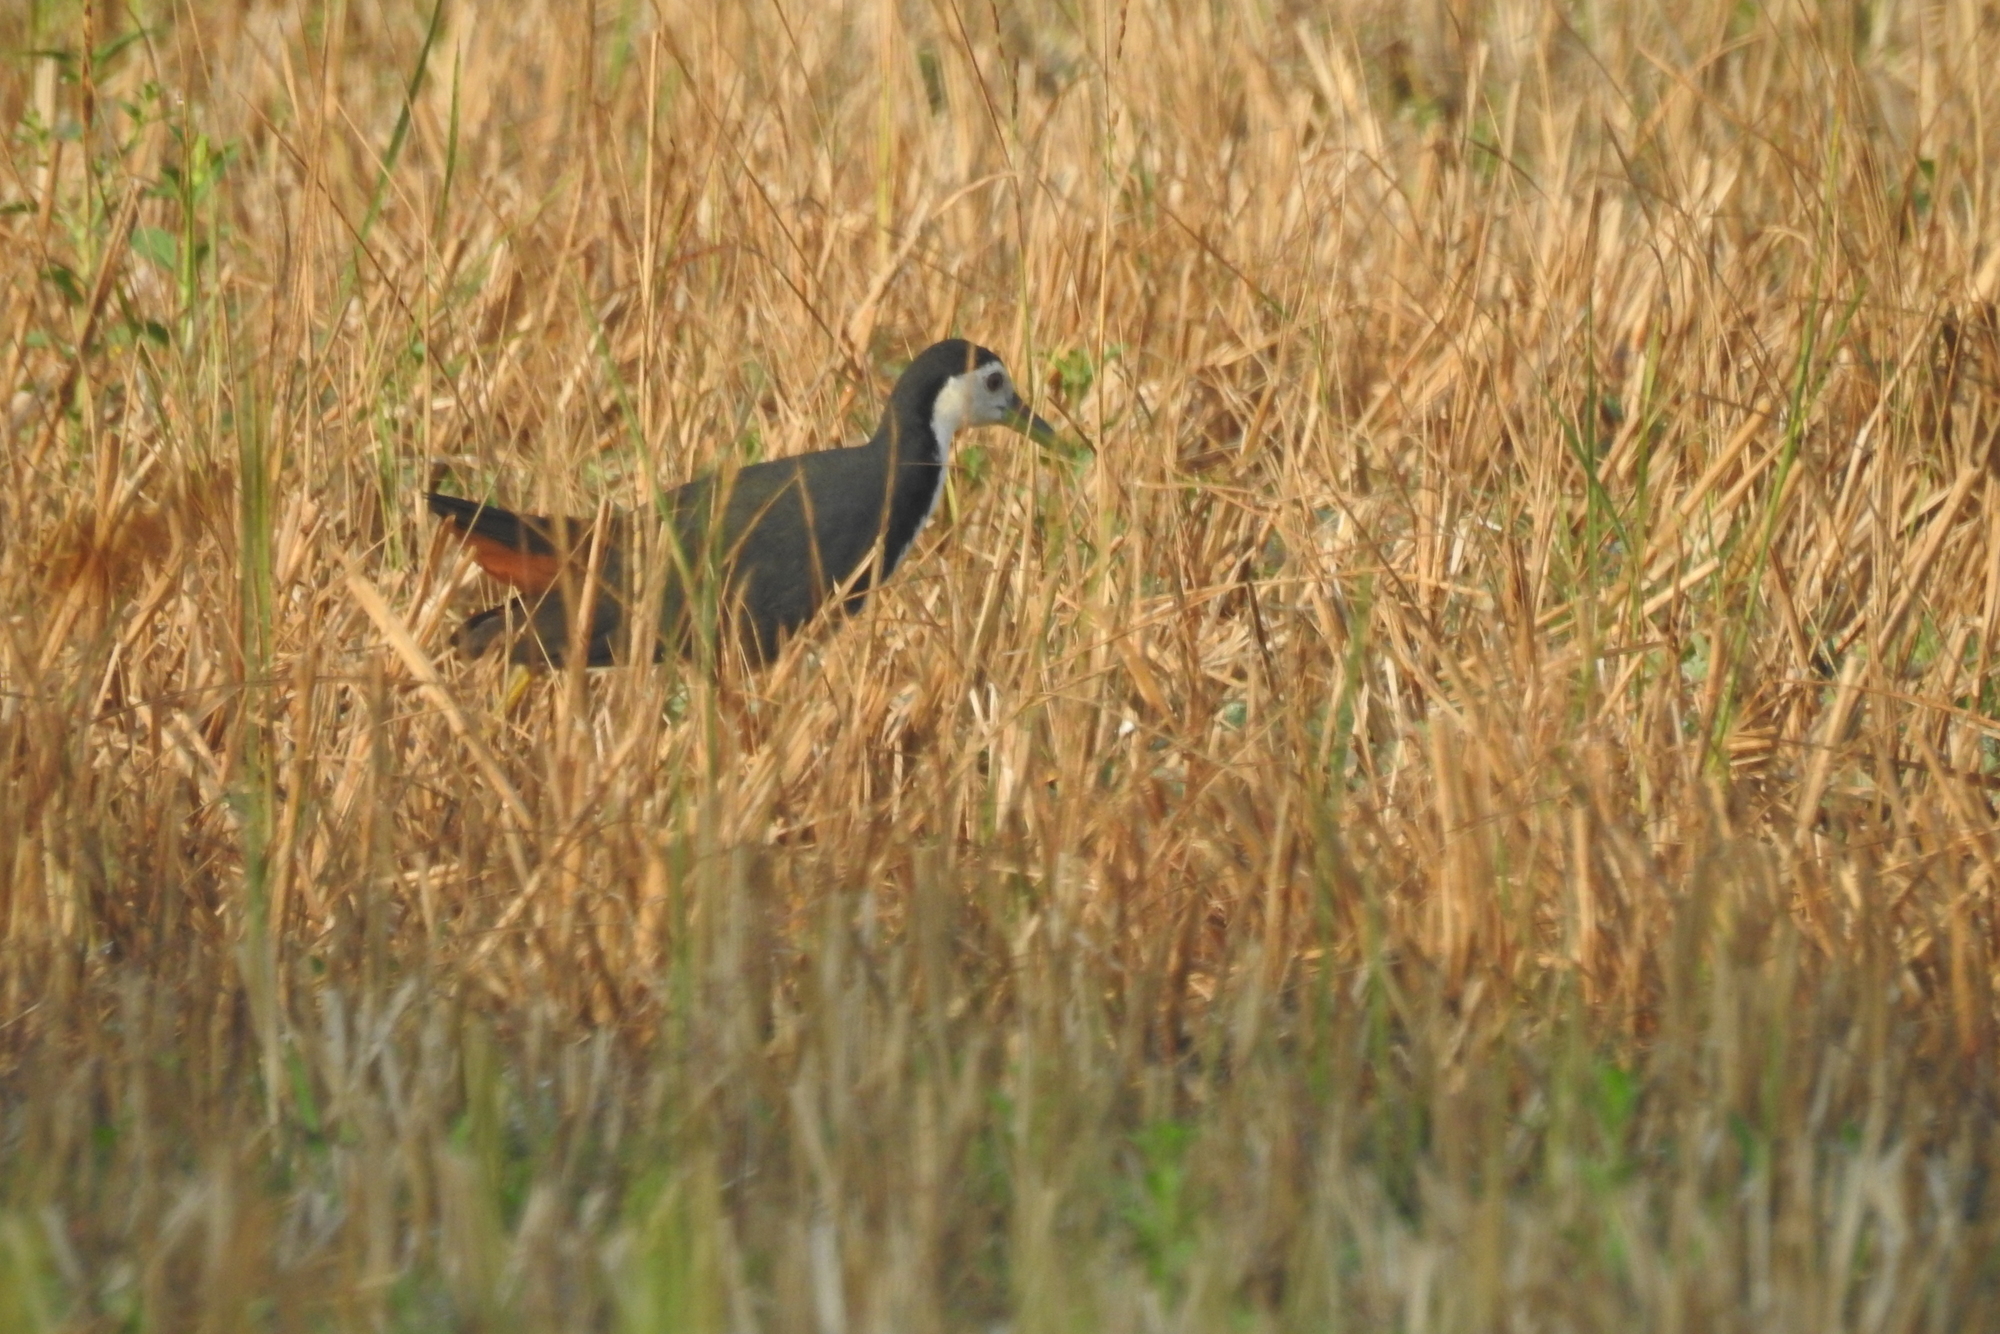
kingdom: Animalia
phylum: Chordata
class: Aves
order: Gruiformes
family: Rallidae
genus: Amaurornis
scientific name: Amaurornis phoenicurus
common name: White-breasted waterhen
